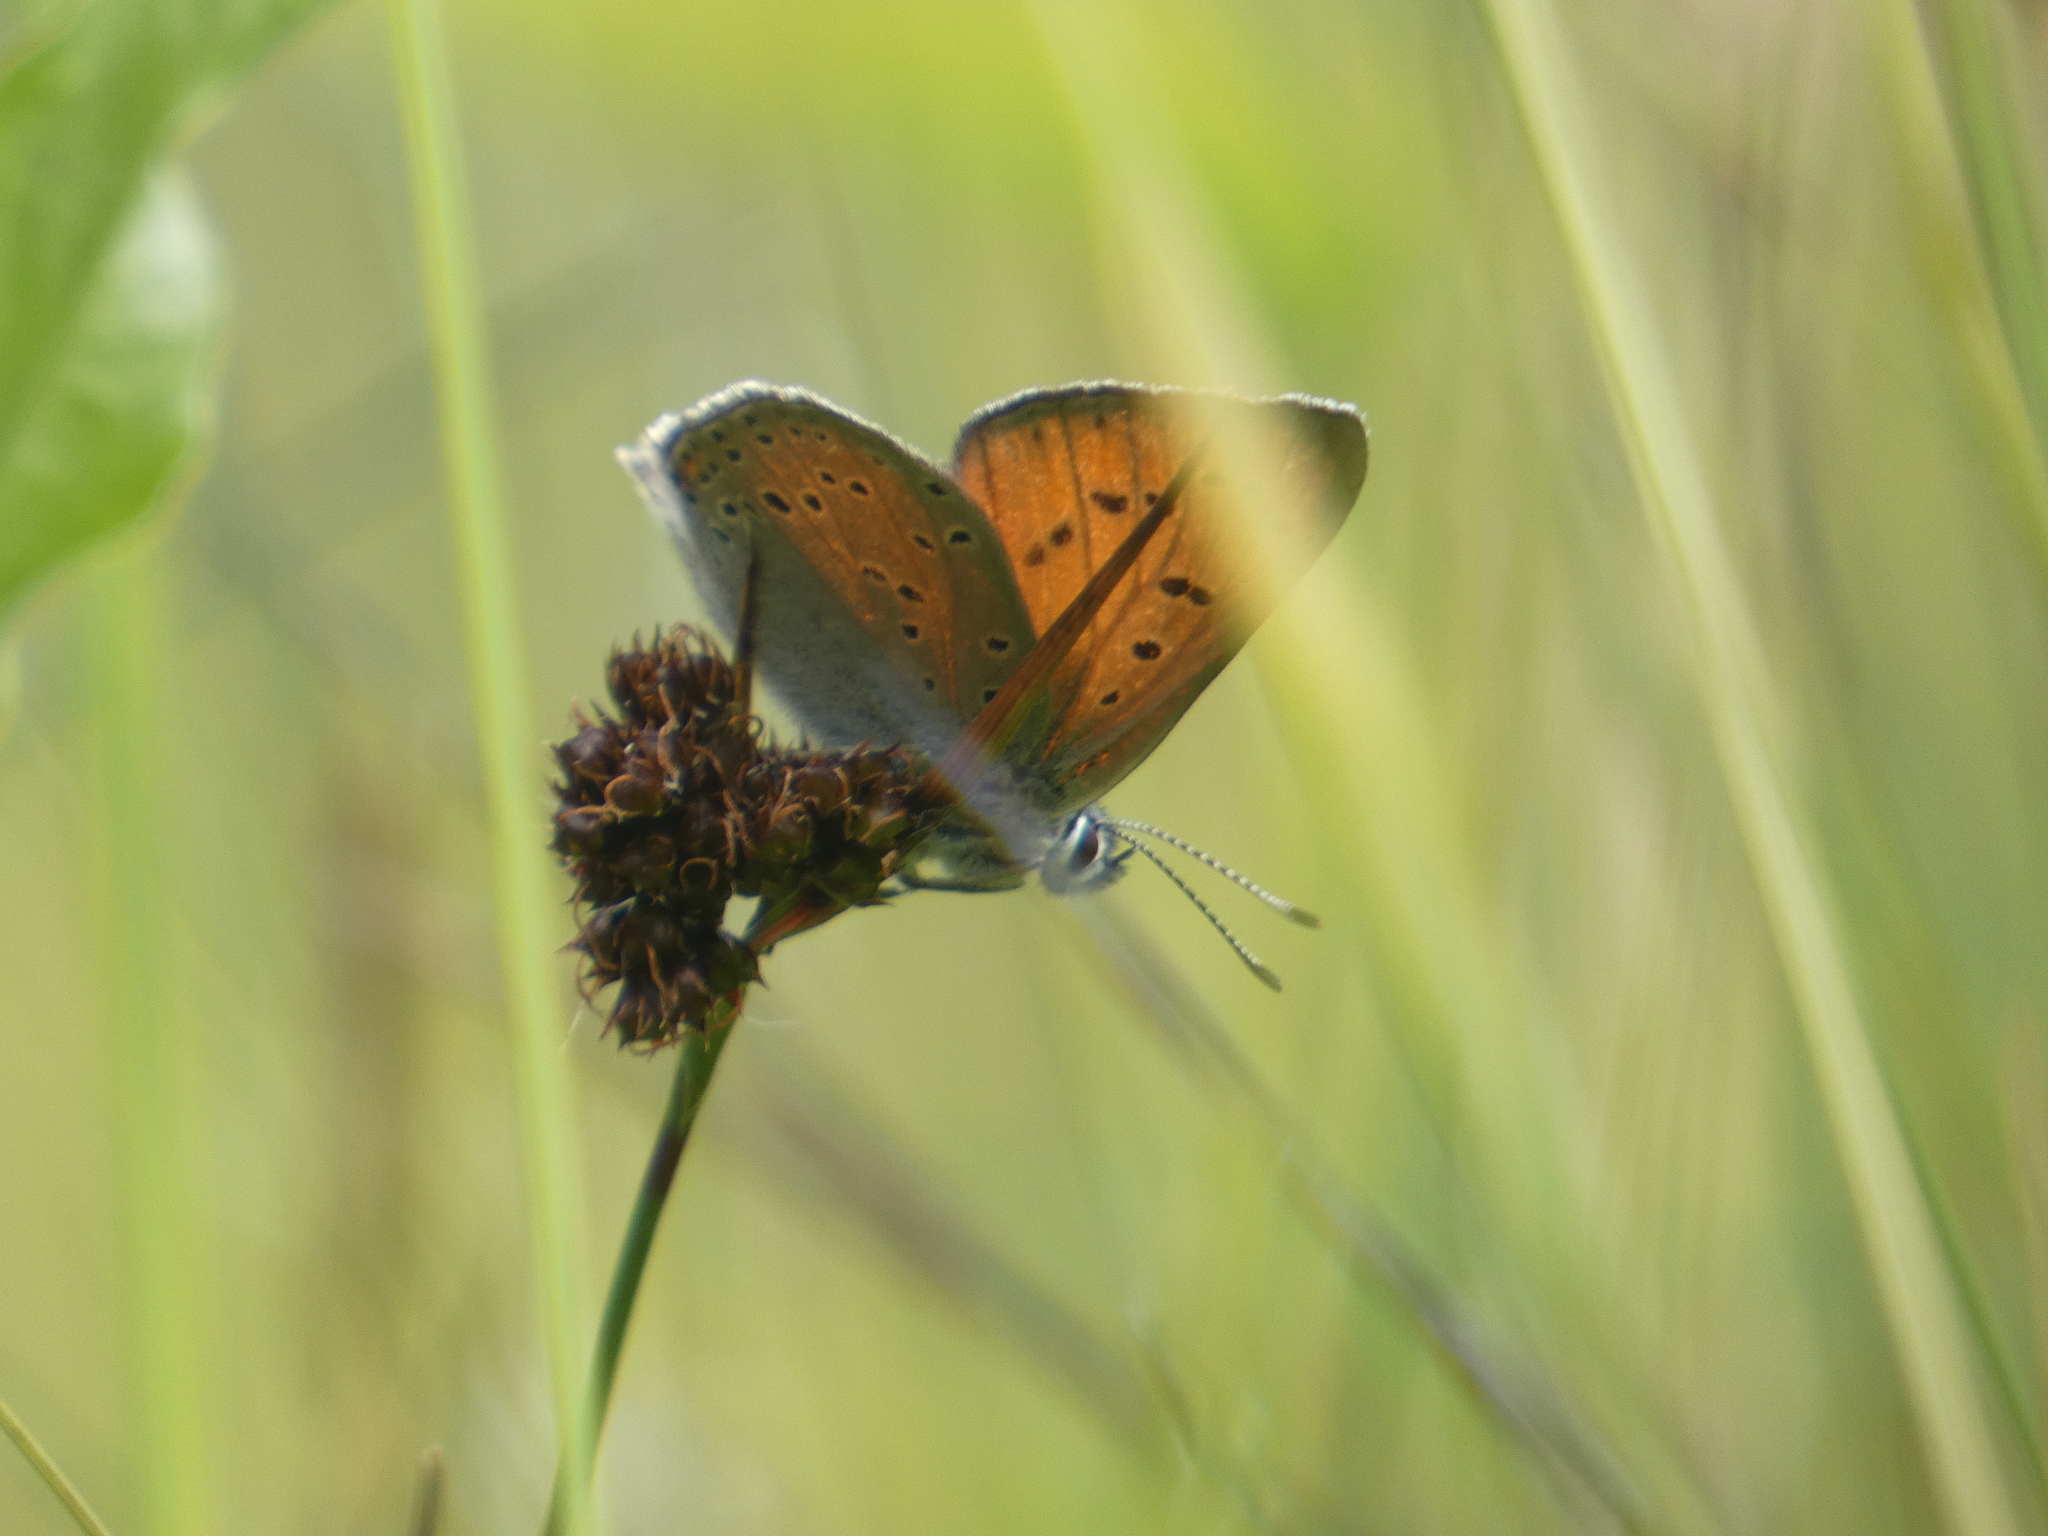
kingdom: Animalia
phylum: Arthropoda
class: Insecta
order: Lepidoptera
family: Lycaenidae
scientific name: Lycaenidae
